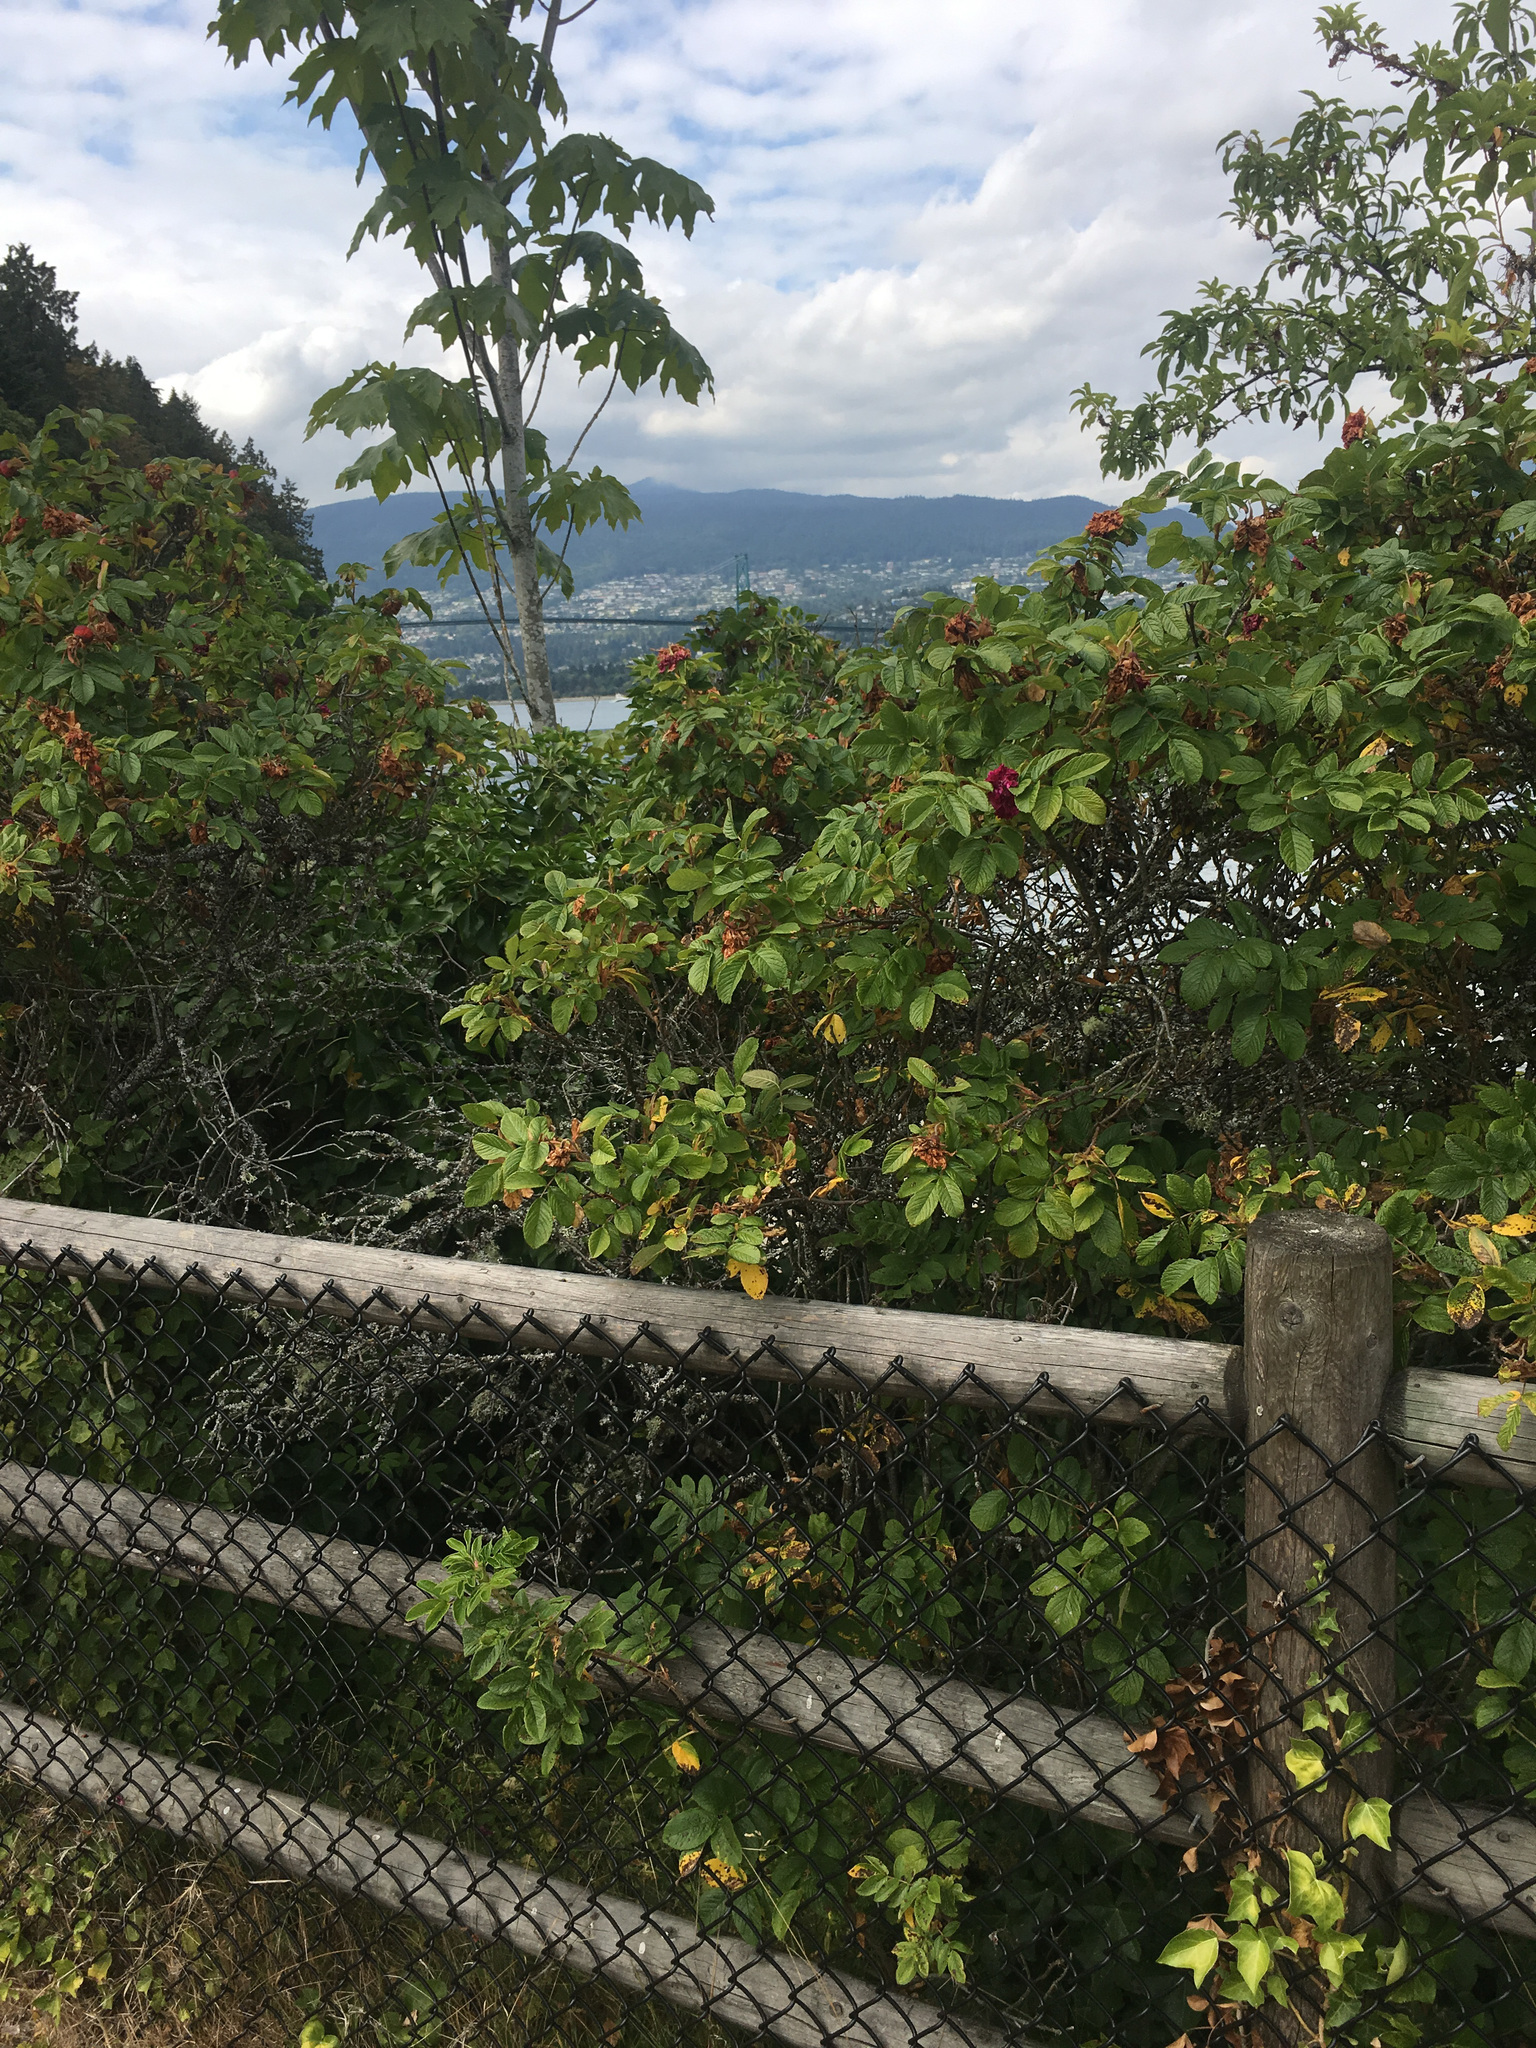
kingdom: Plantae
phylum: Tracheophyta
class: Magnoliopsida
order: Rosales
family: Rosaceae
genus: Rosa
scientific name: Rosa rugosa
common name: Japanese rose
